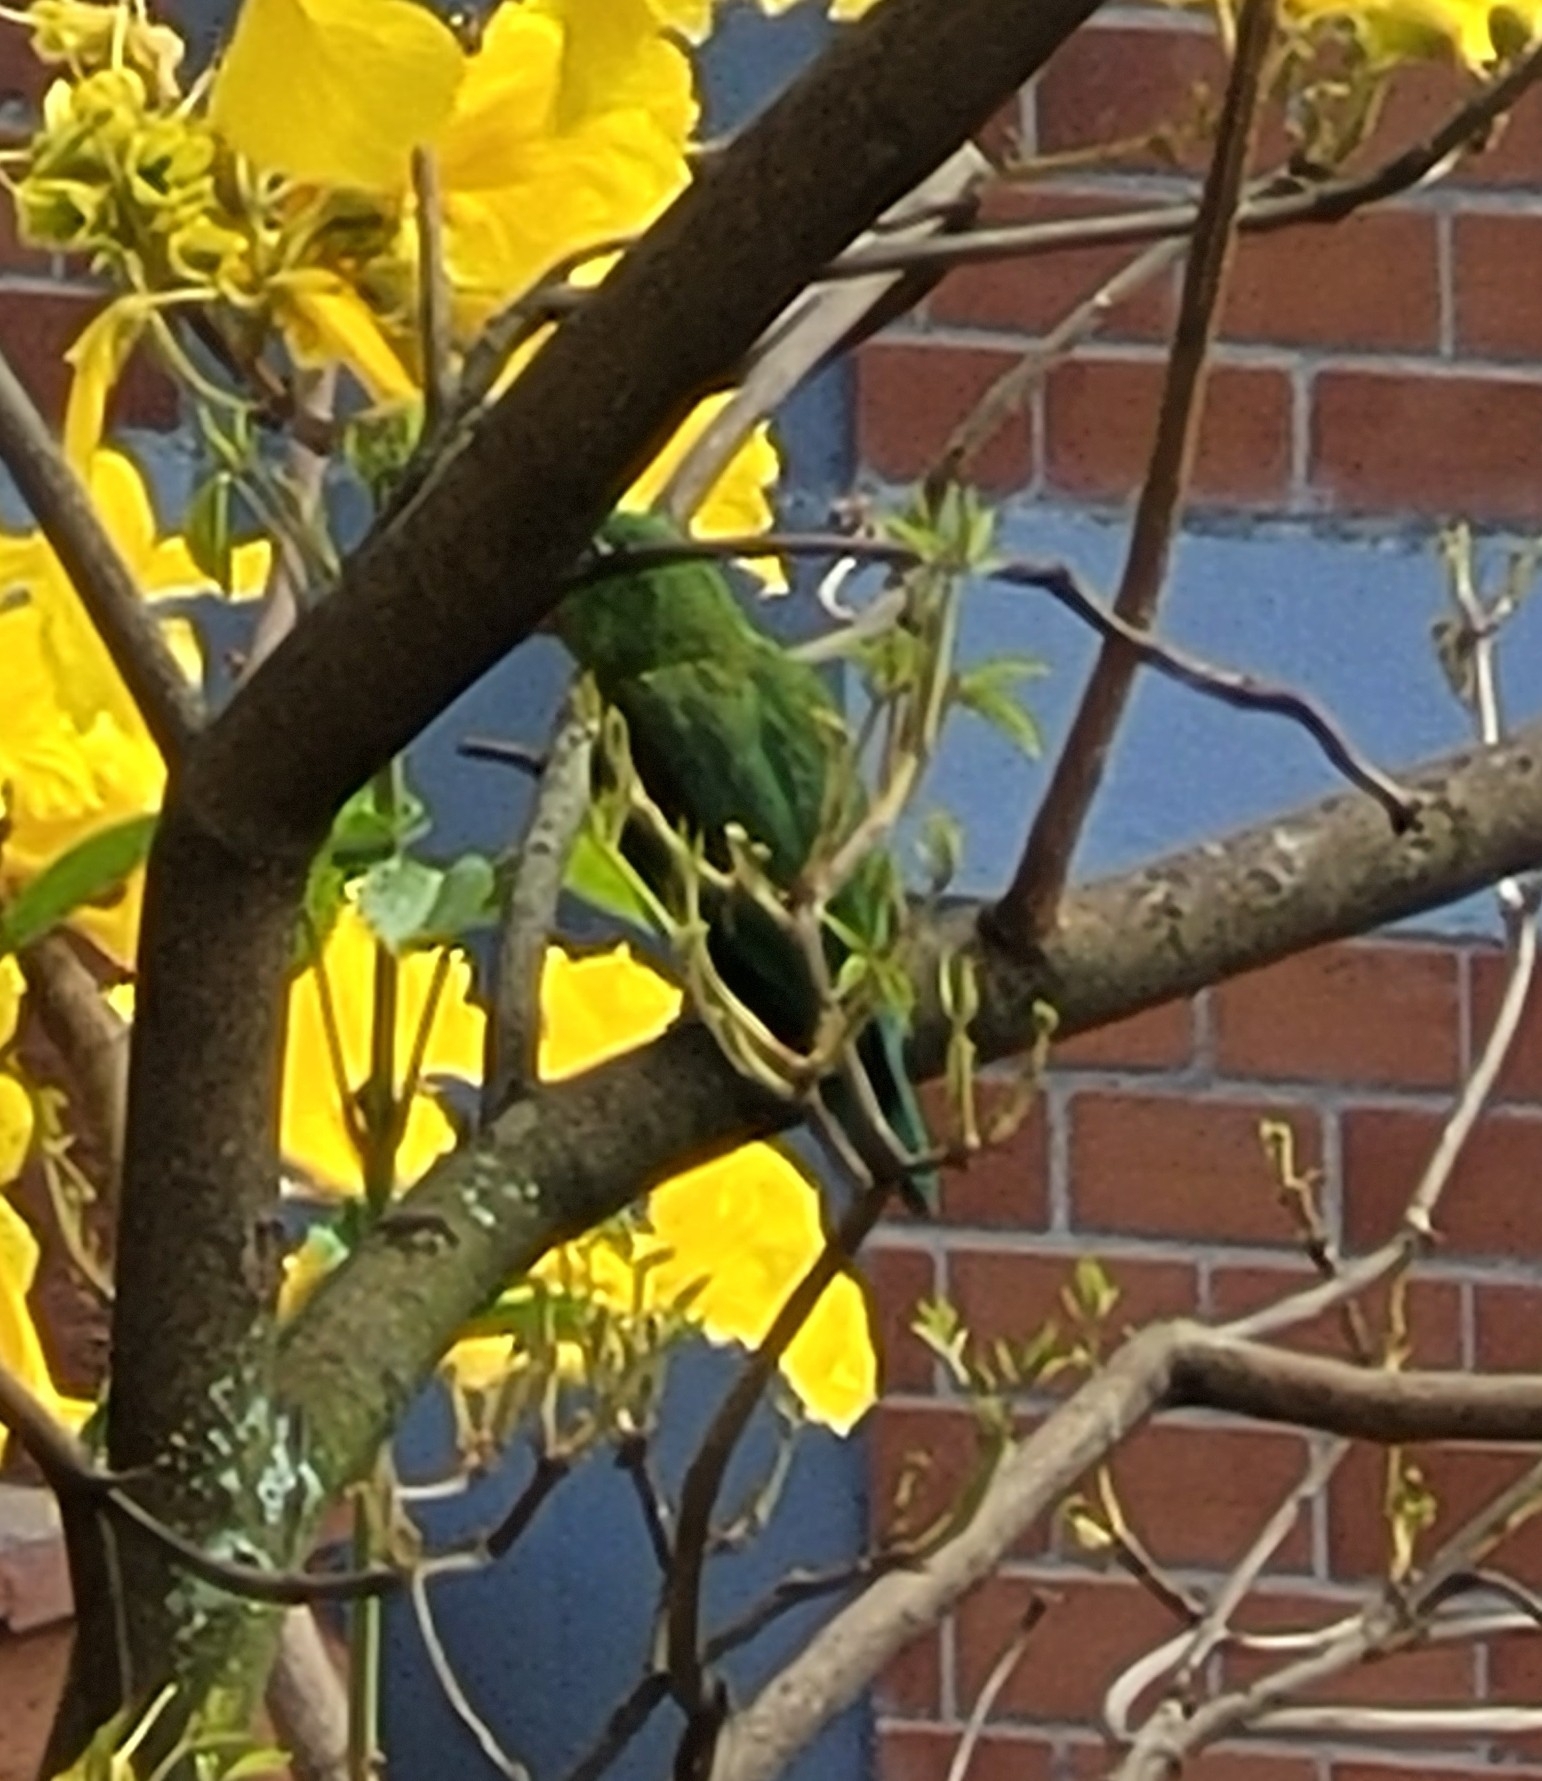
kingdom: Animalia
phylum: Chordata
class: Aves
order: Psittaciformes
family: Psittacidae
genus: Brotogeris
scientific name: Brotogeris jugularis
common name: Orange-chinned parakeet
